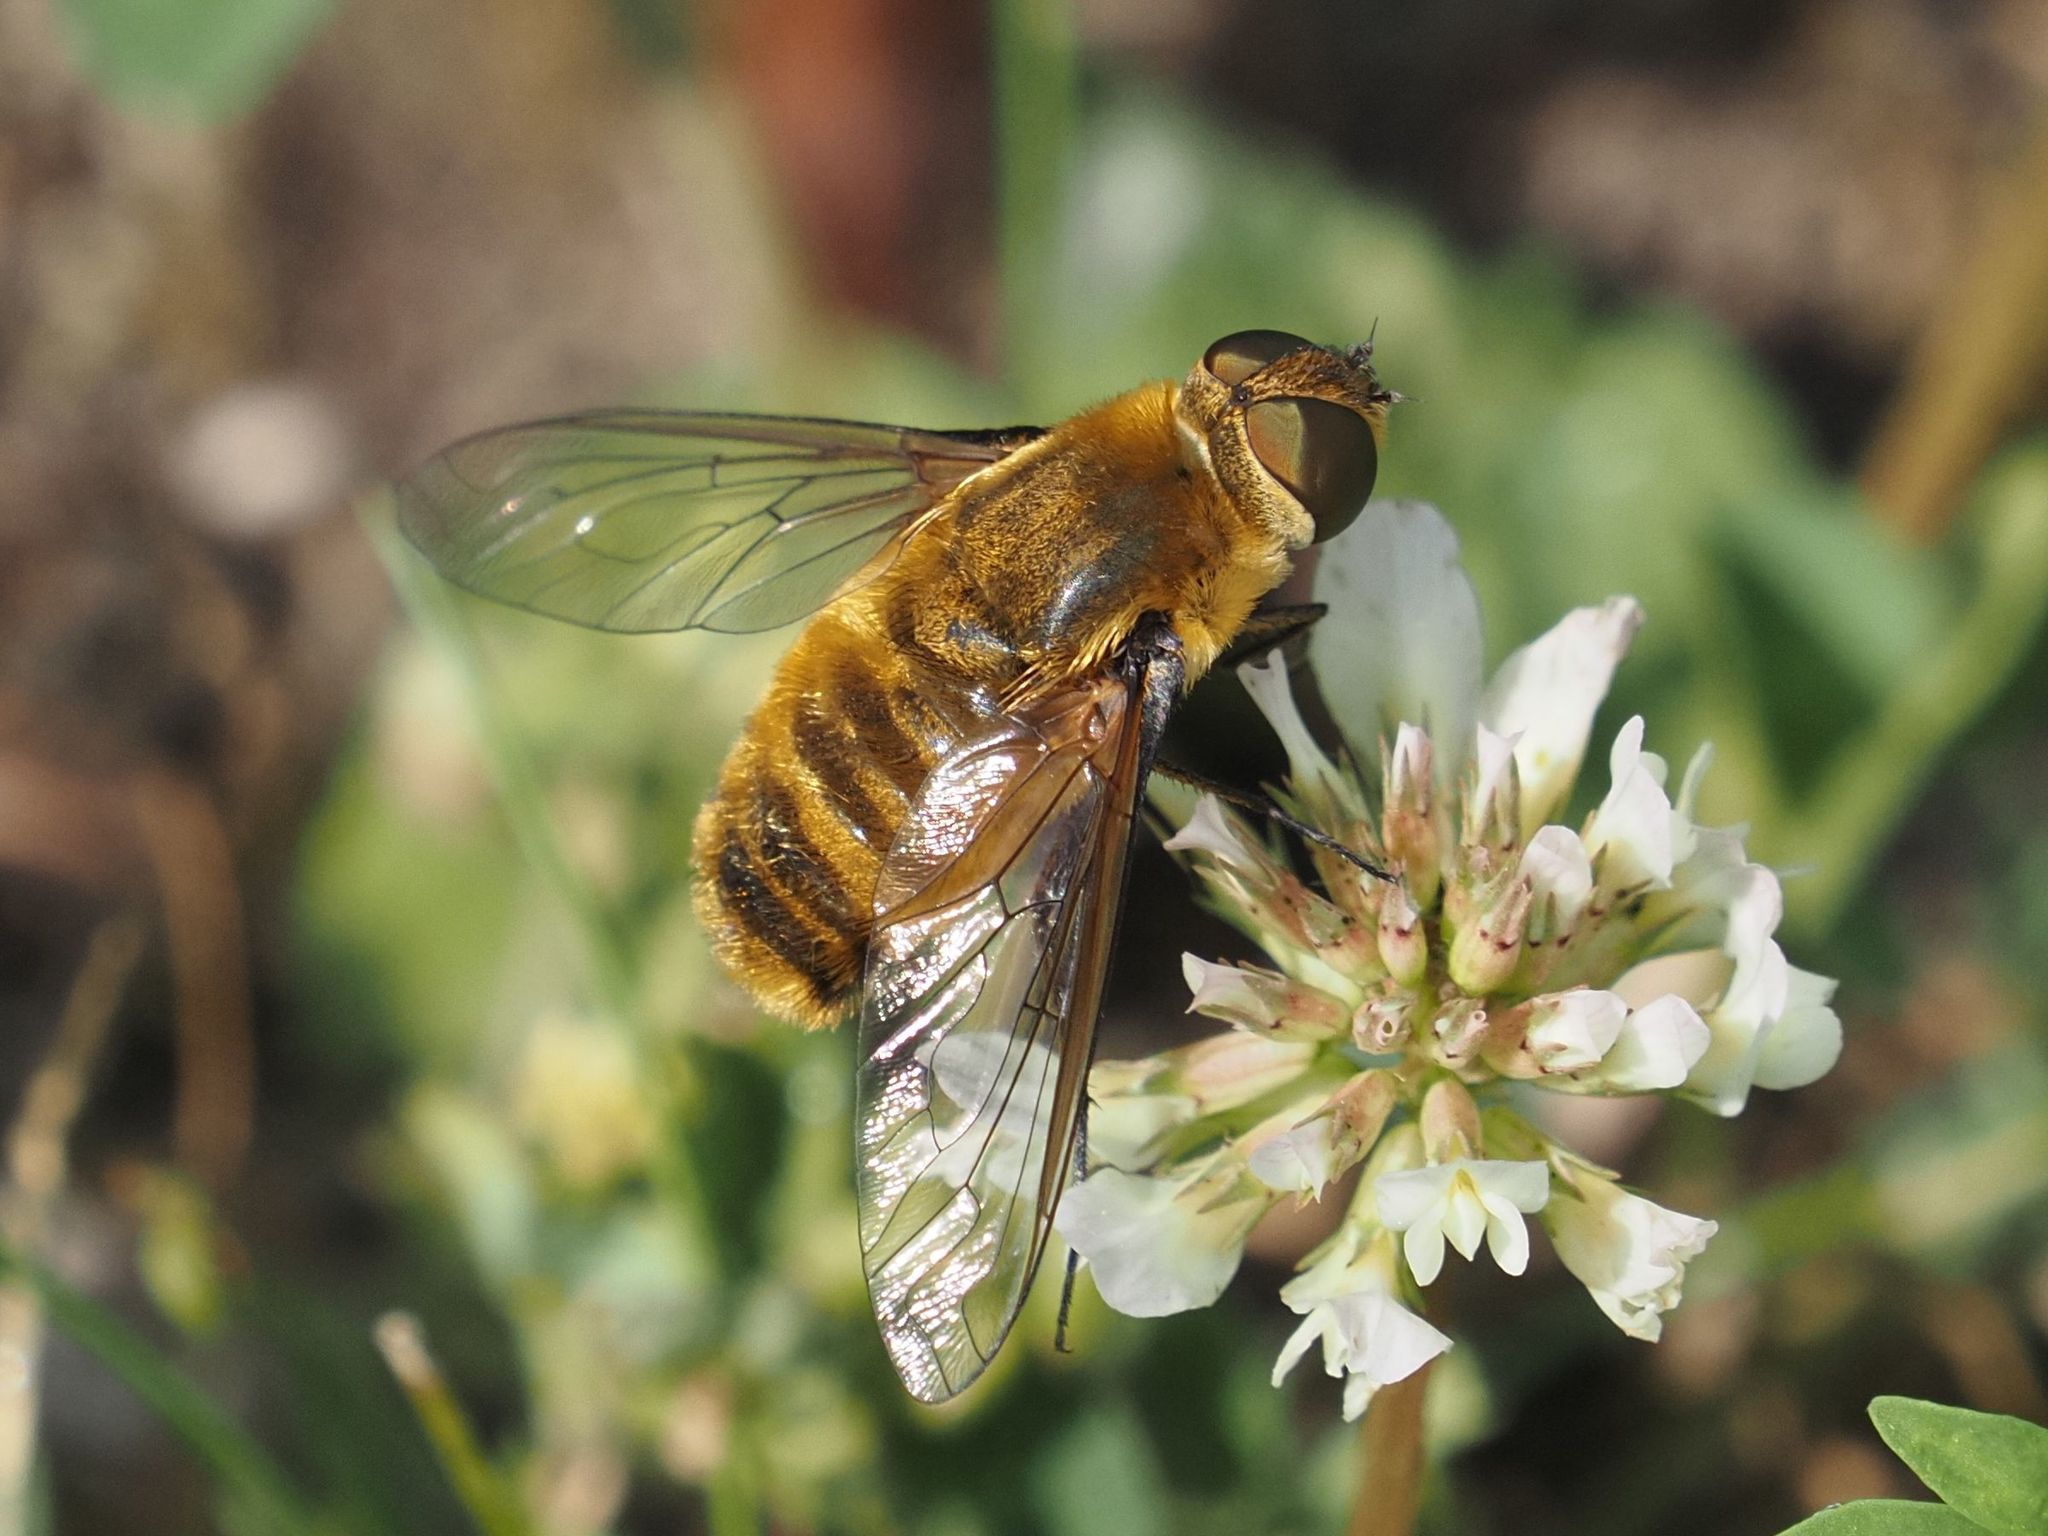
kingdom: Animalia
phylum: Arthropoda
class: Insecta
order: Diptera
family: Bombyliidae
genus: Villa
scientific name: Villa hottentotta
